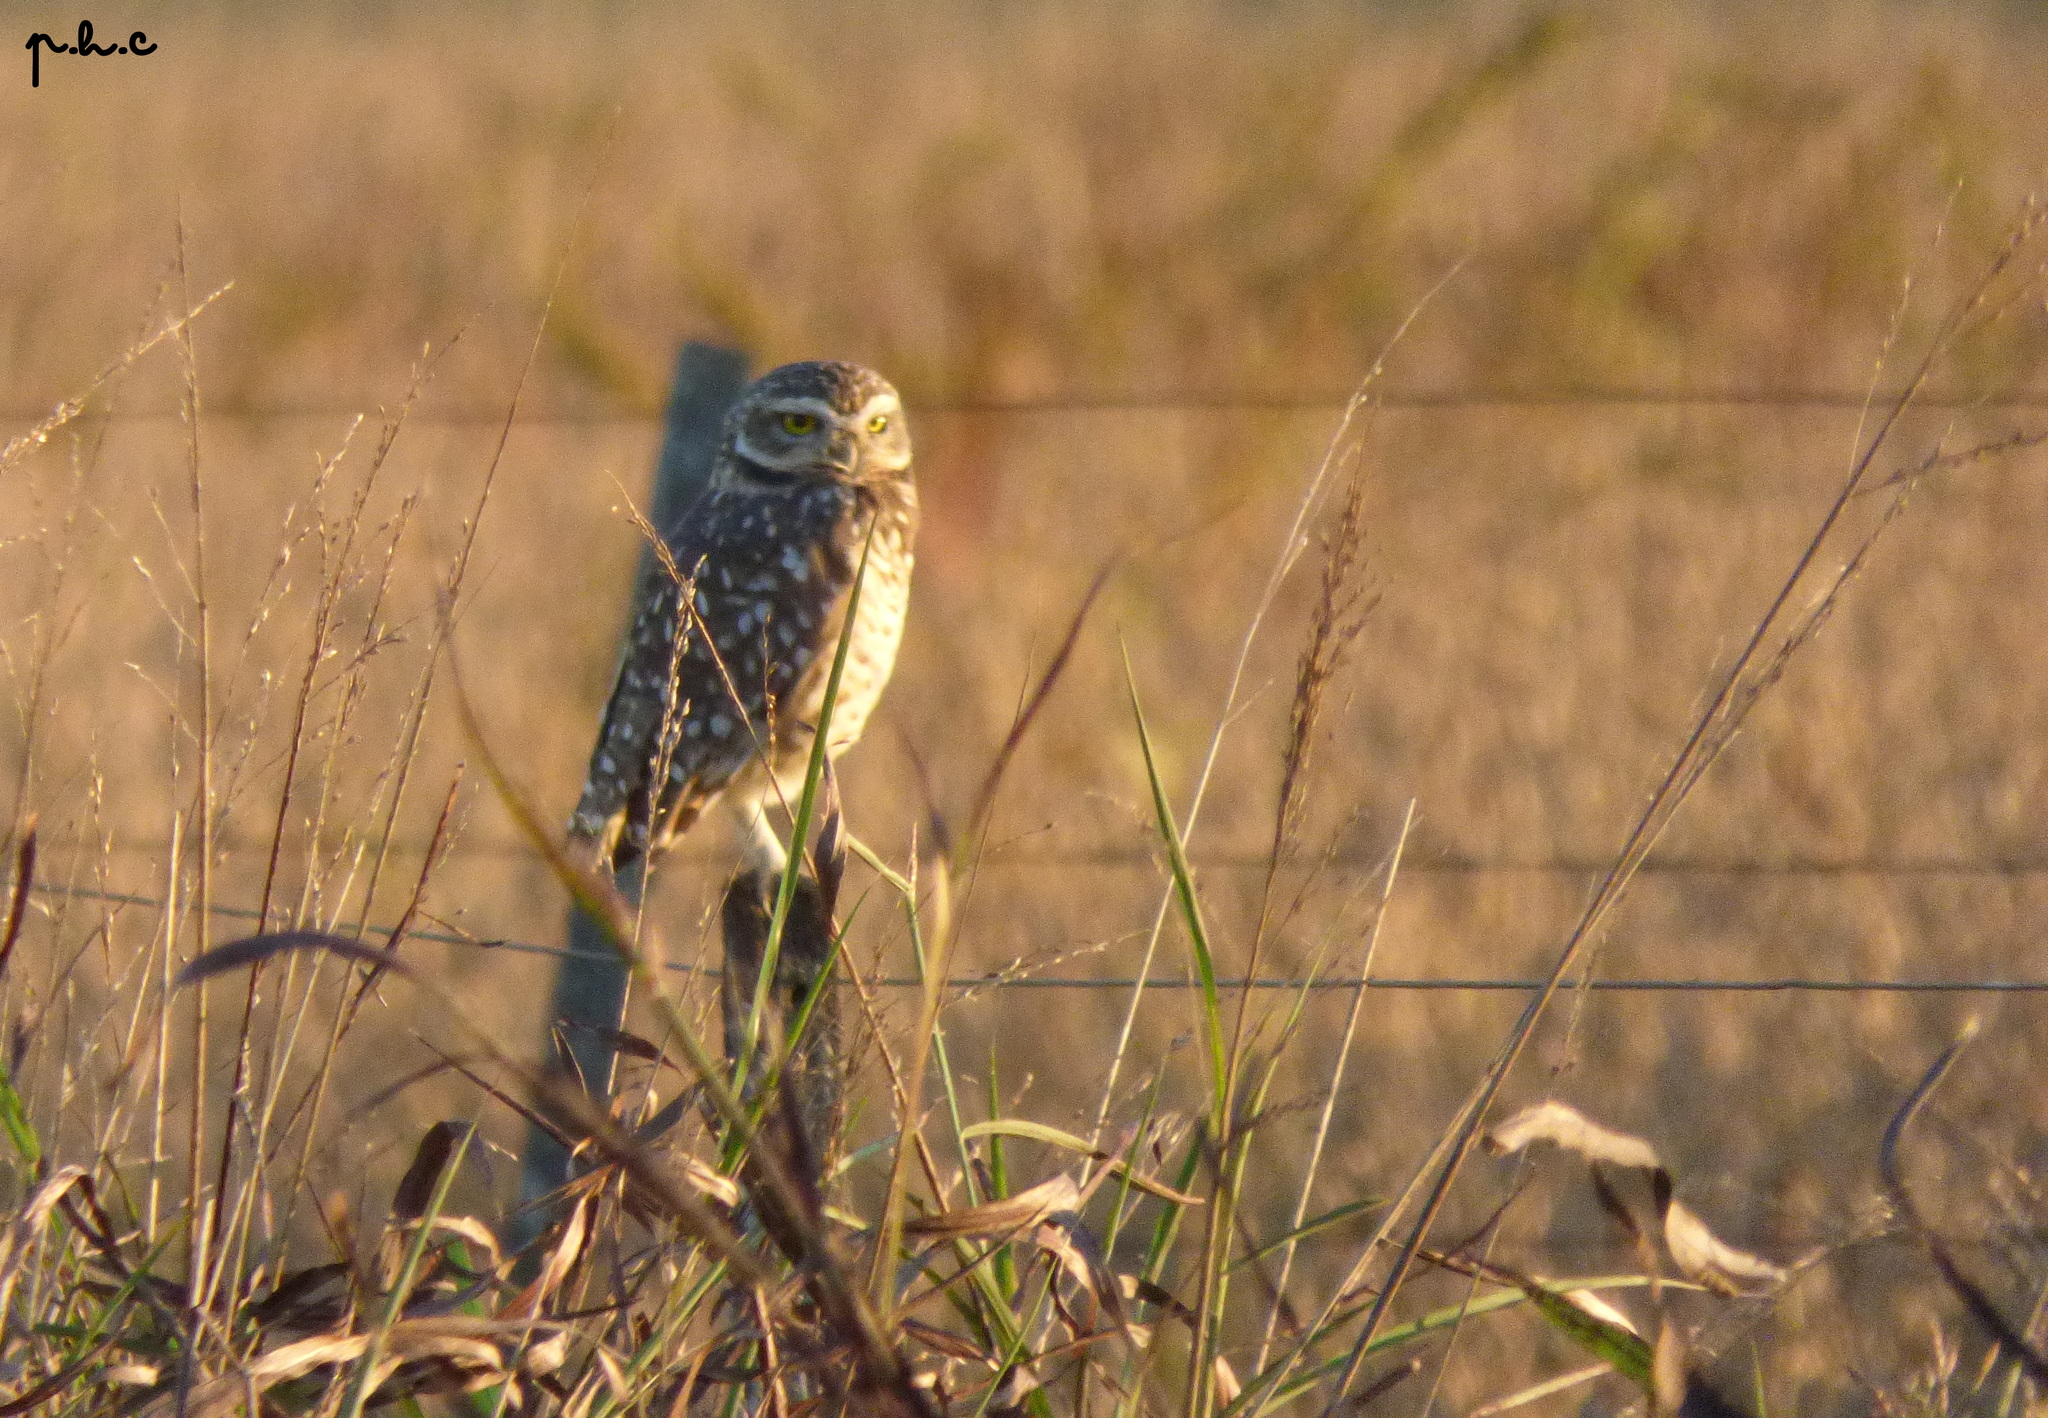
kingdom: Animalia
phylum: Chordata
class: Aves
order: Strigiformes
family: Strigidae
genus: Athene
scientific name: Athene cunicularia
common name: Burrowing owl
